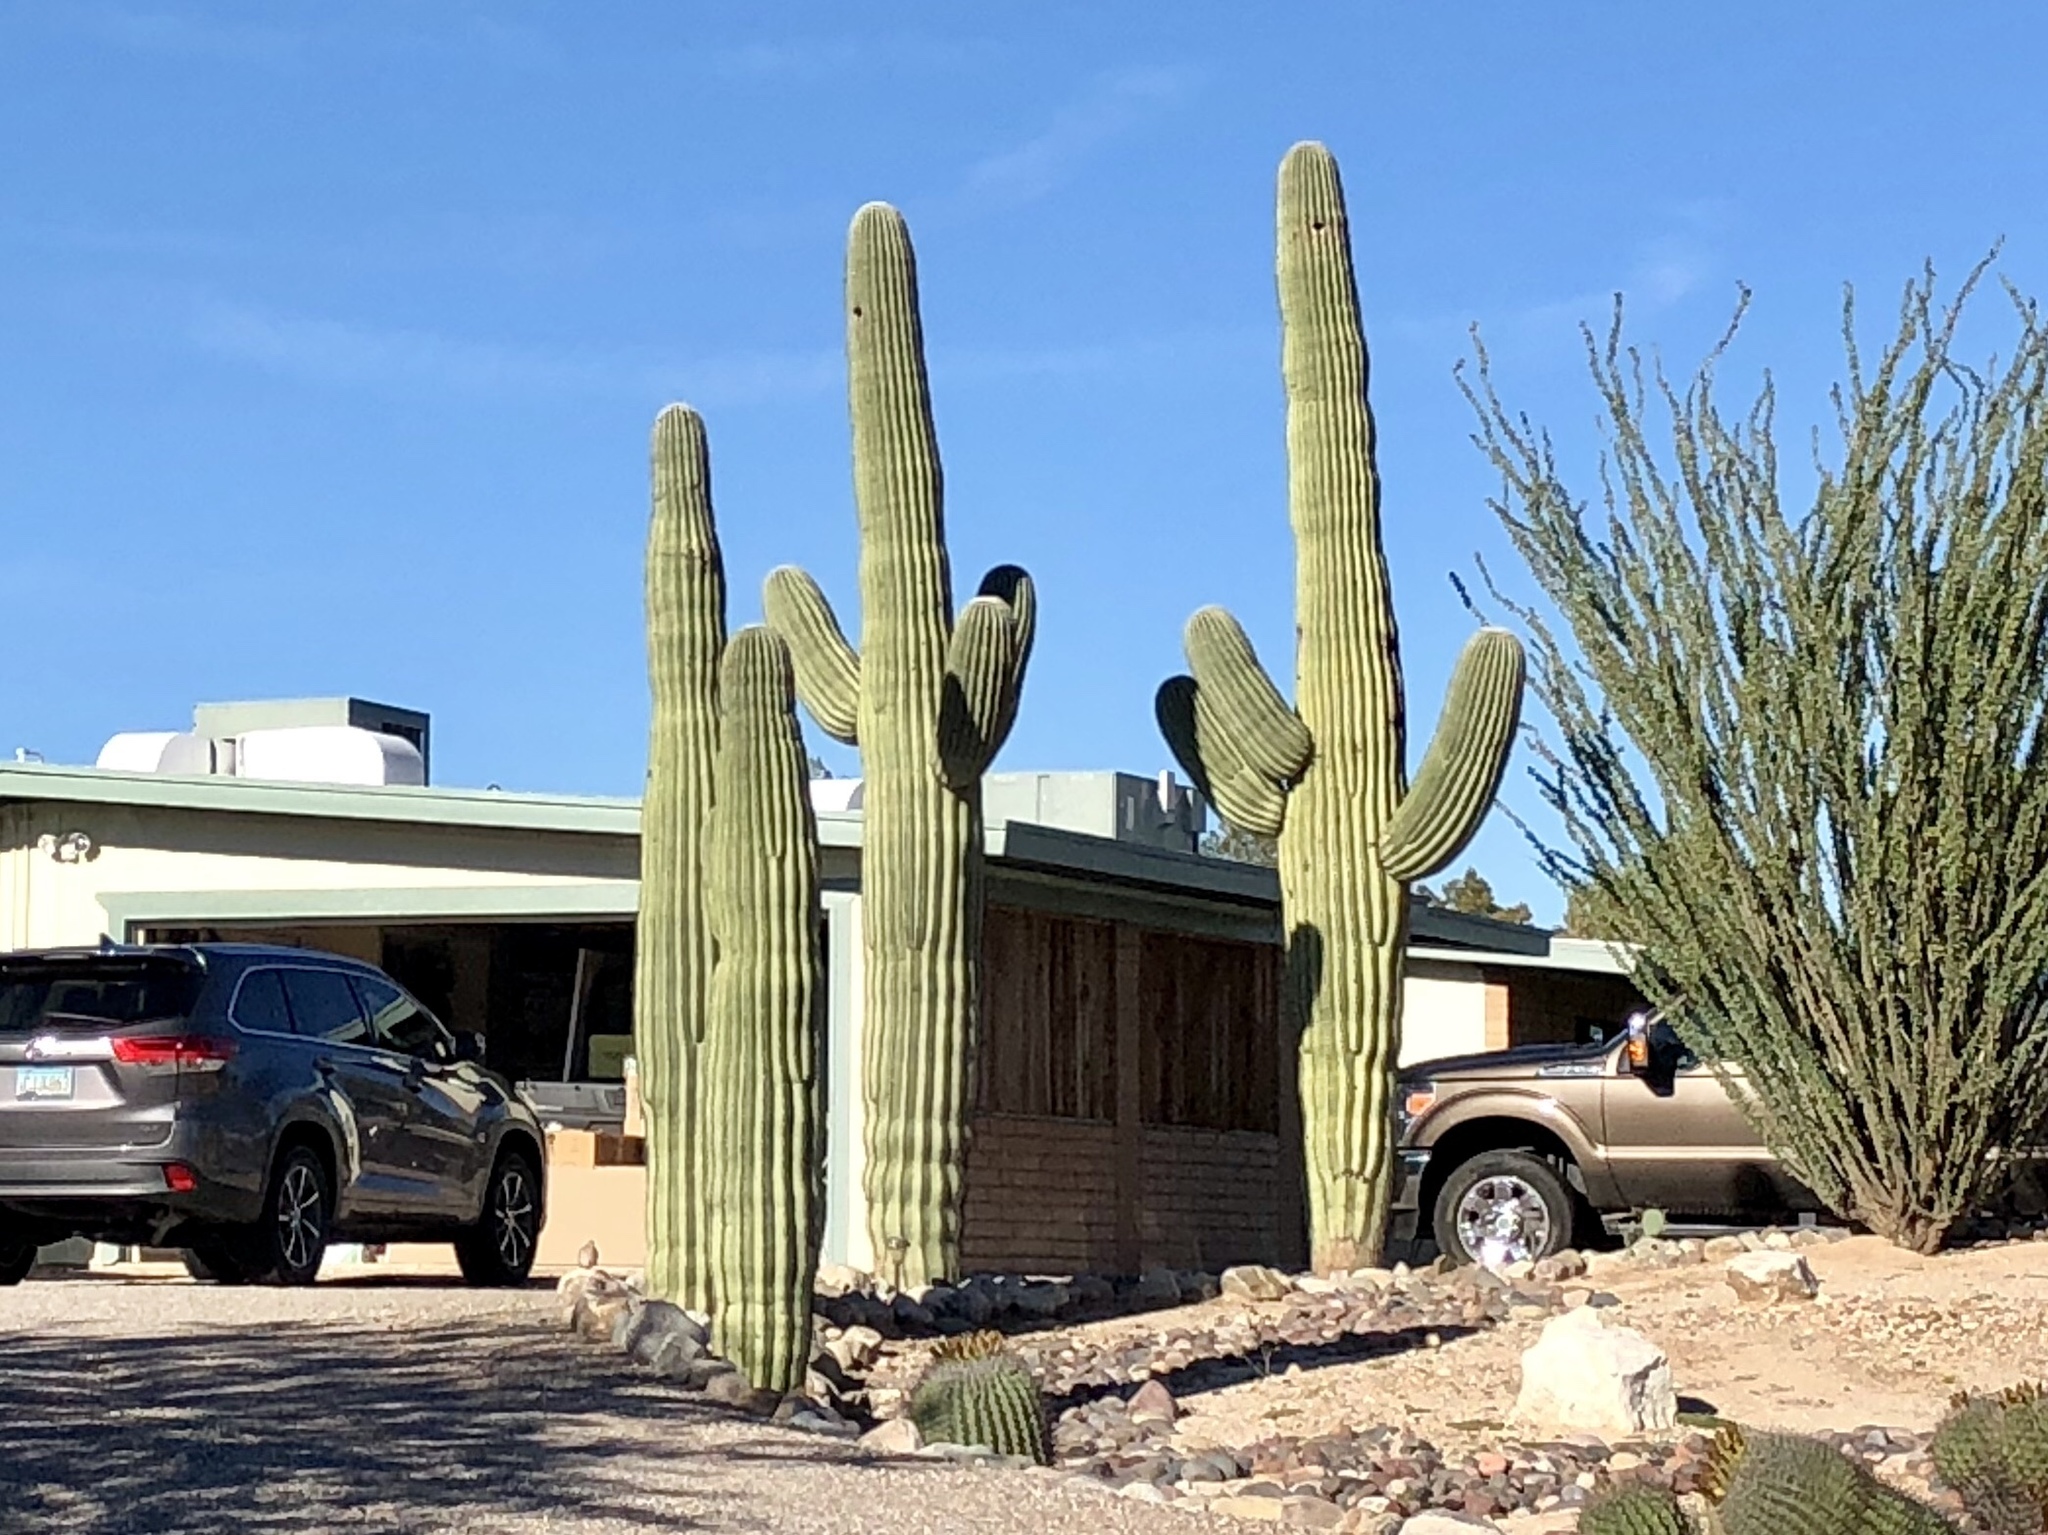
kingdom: Plantae
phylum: Tracheophyta
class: Magnoliopsida
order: Caryophyllales
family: Cactaceae
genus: Carnegiea
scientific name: Carnegiea gigantea
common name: Saguaro
